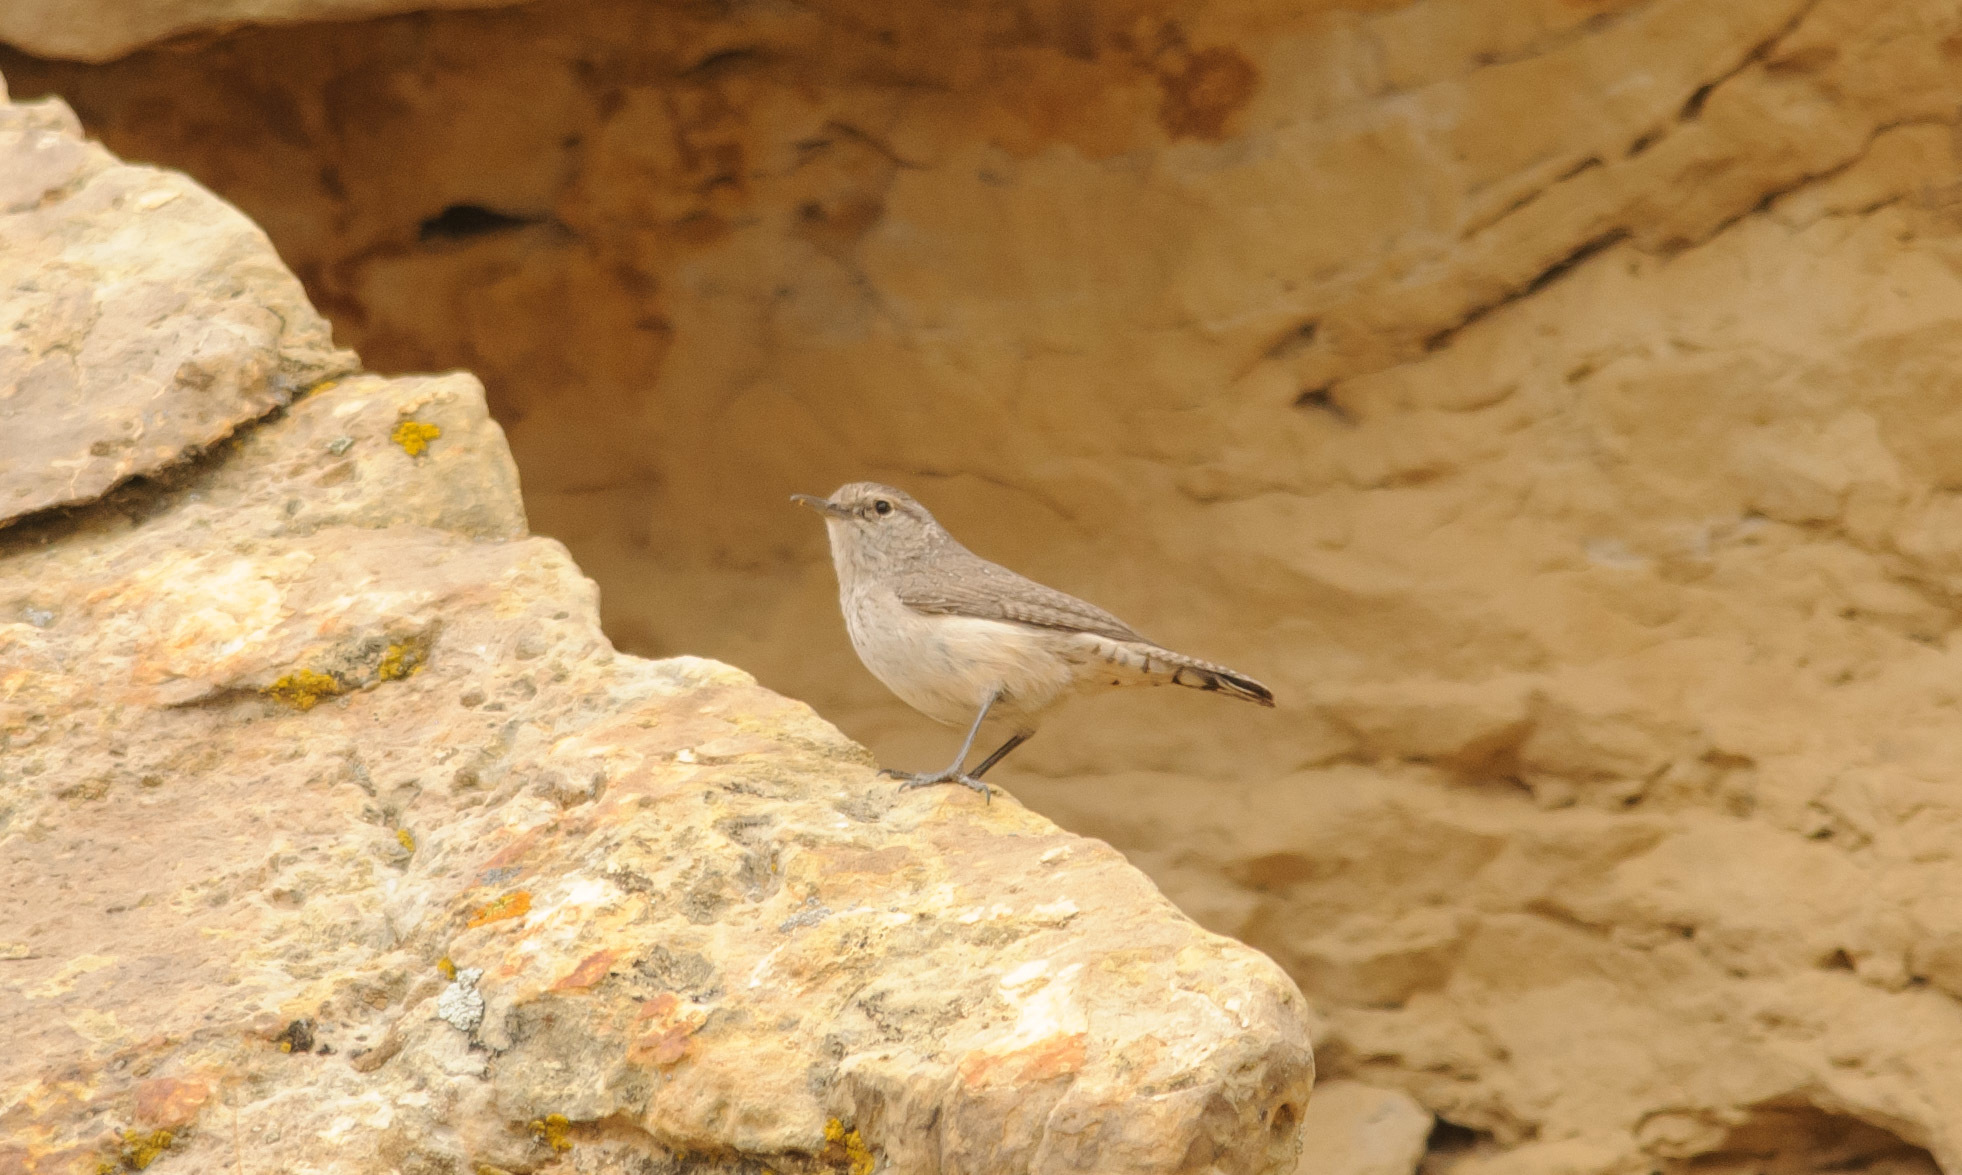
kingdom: Animalia
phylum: Chordata
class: Aves
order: Passeriformes
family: Troglodytidae
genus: Salpinctes
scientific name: Salpinctes obsoletus
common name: Rock wren
